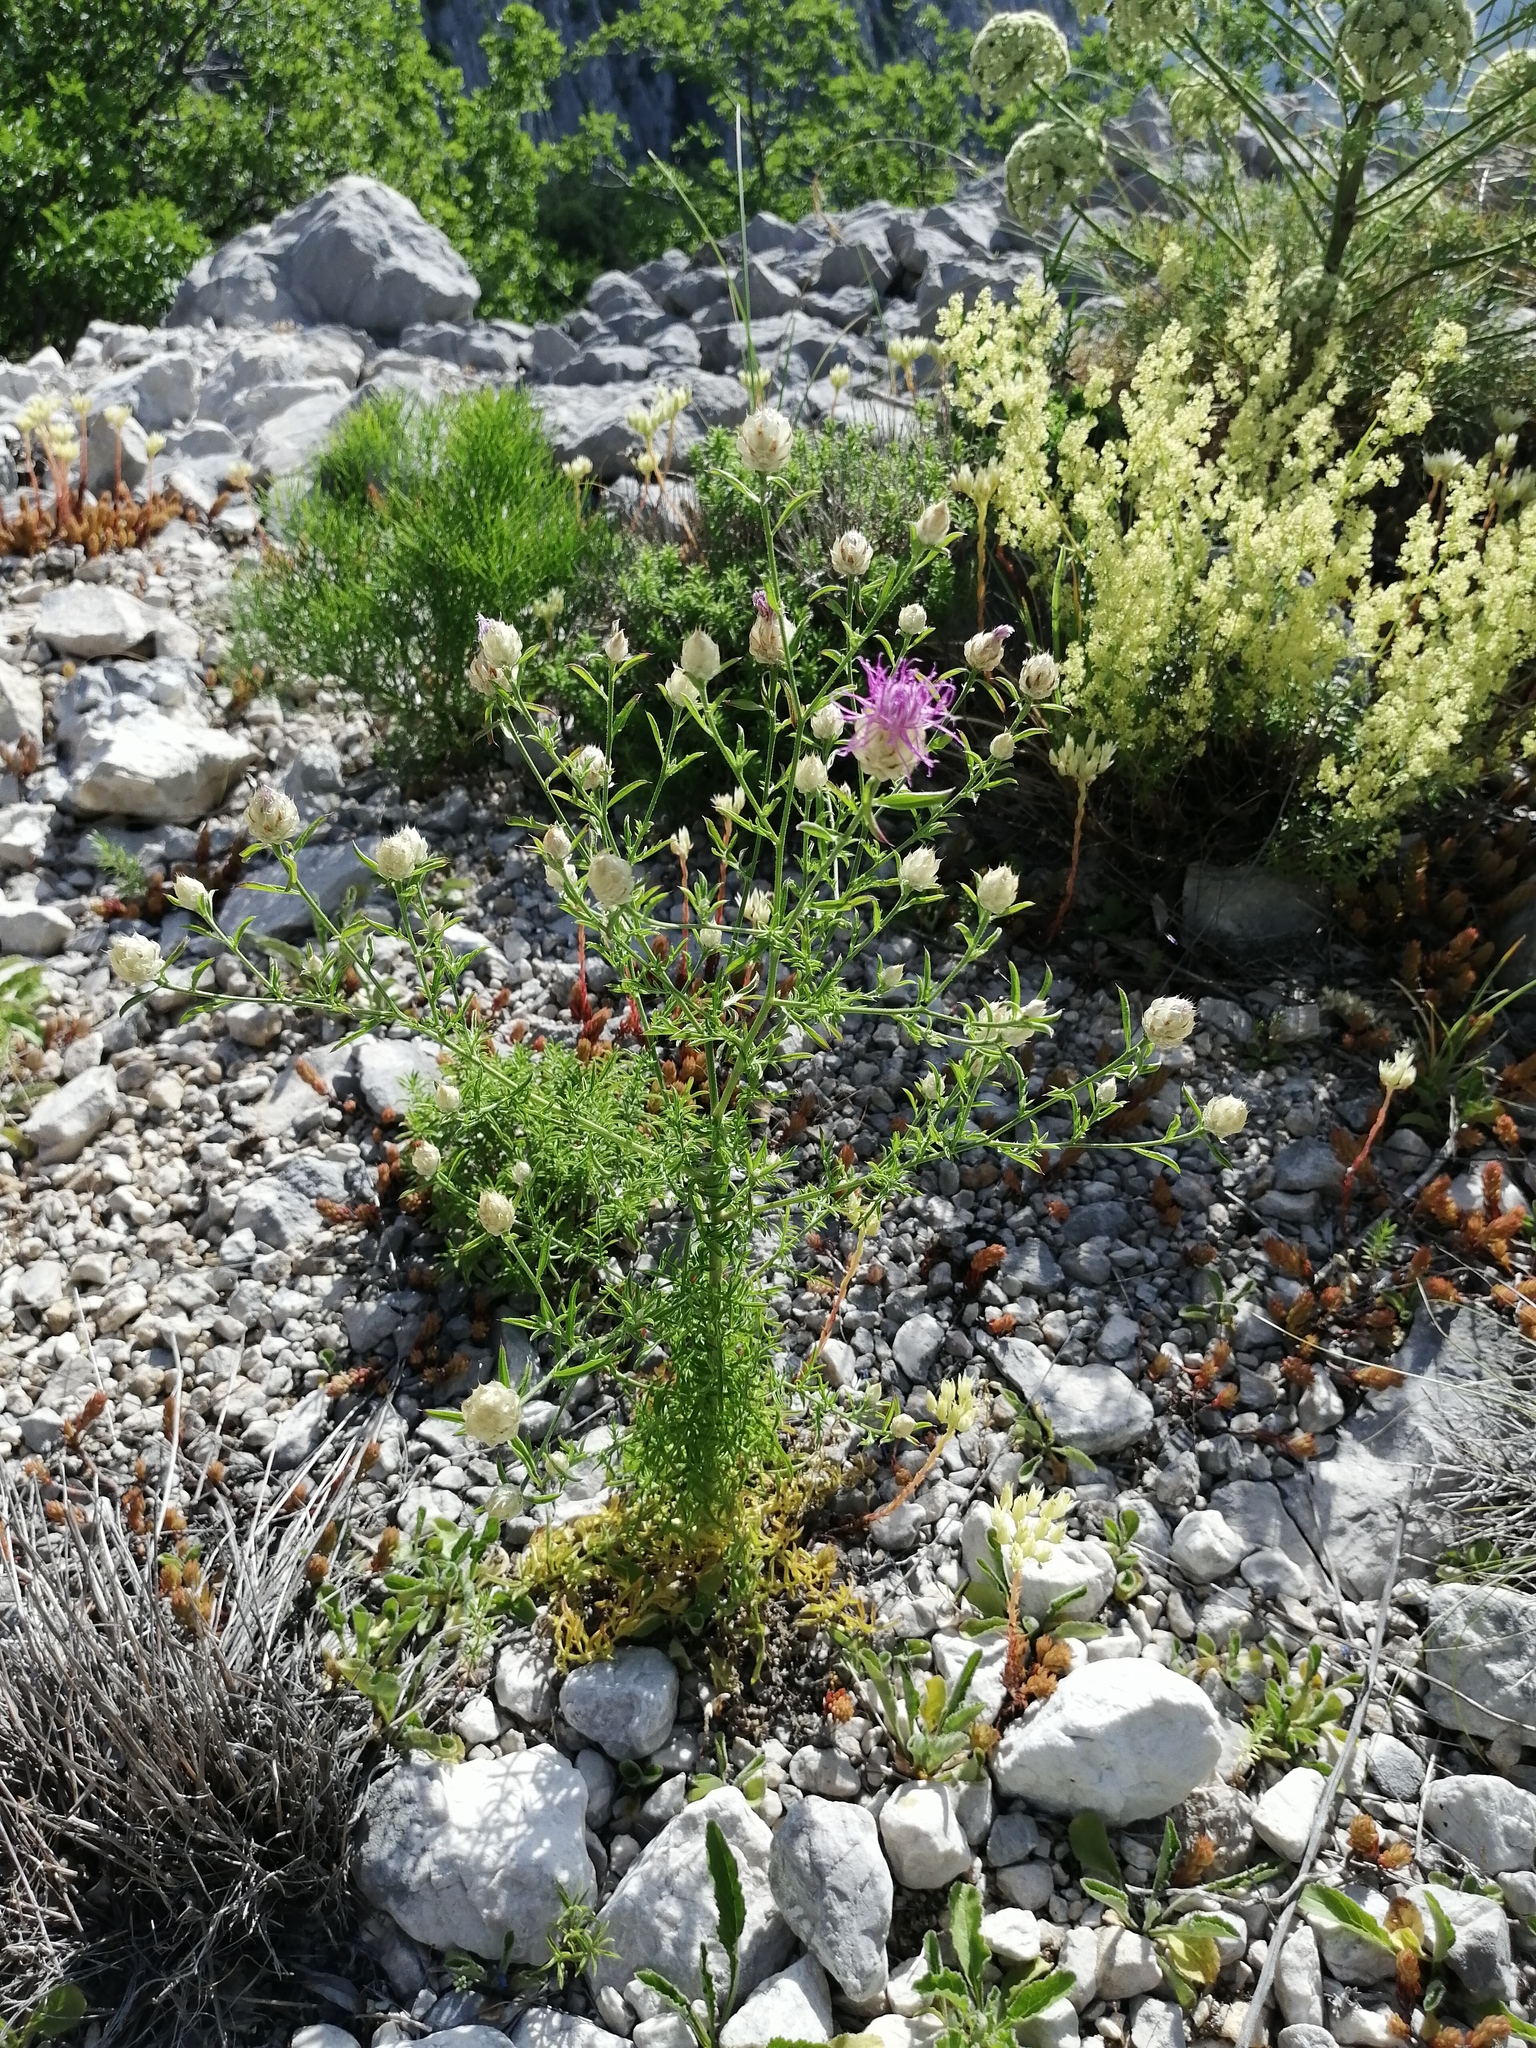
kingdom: Plantae
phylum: Tracheophyta
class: Magnoliopsida
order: Asterales
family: Asteraceae
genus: Centaurea
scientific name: Centaurea deusta
